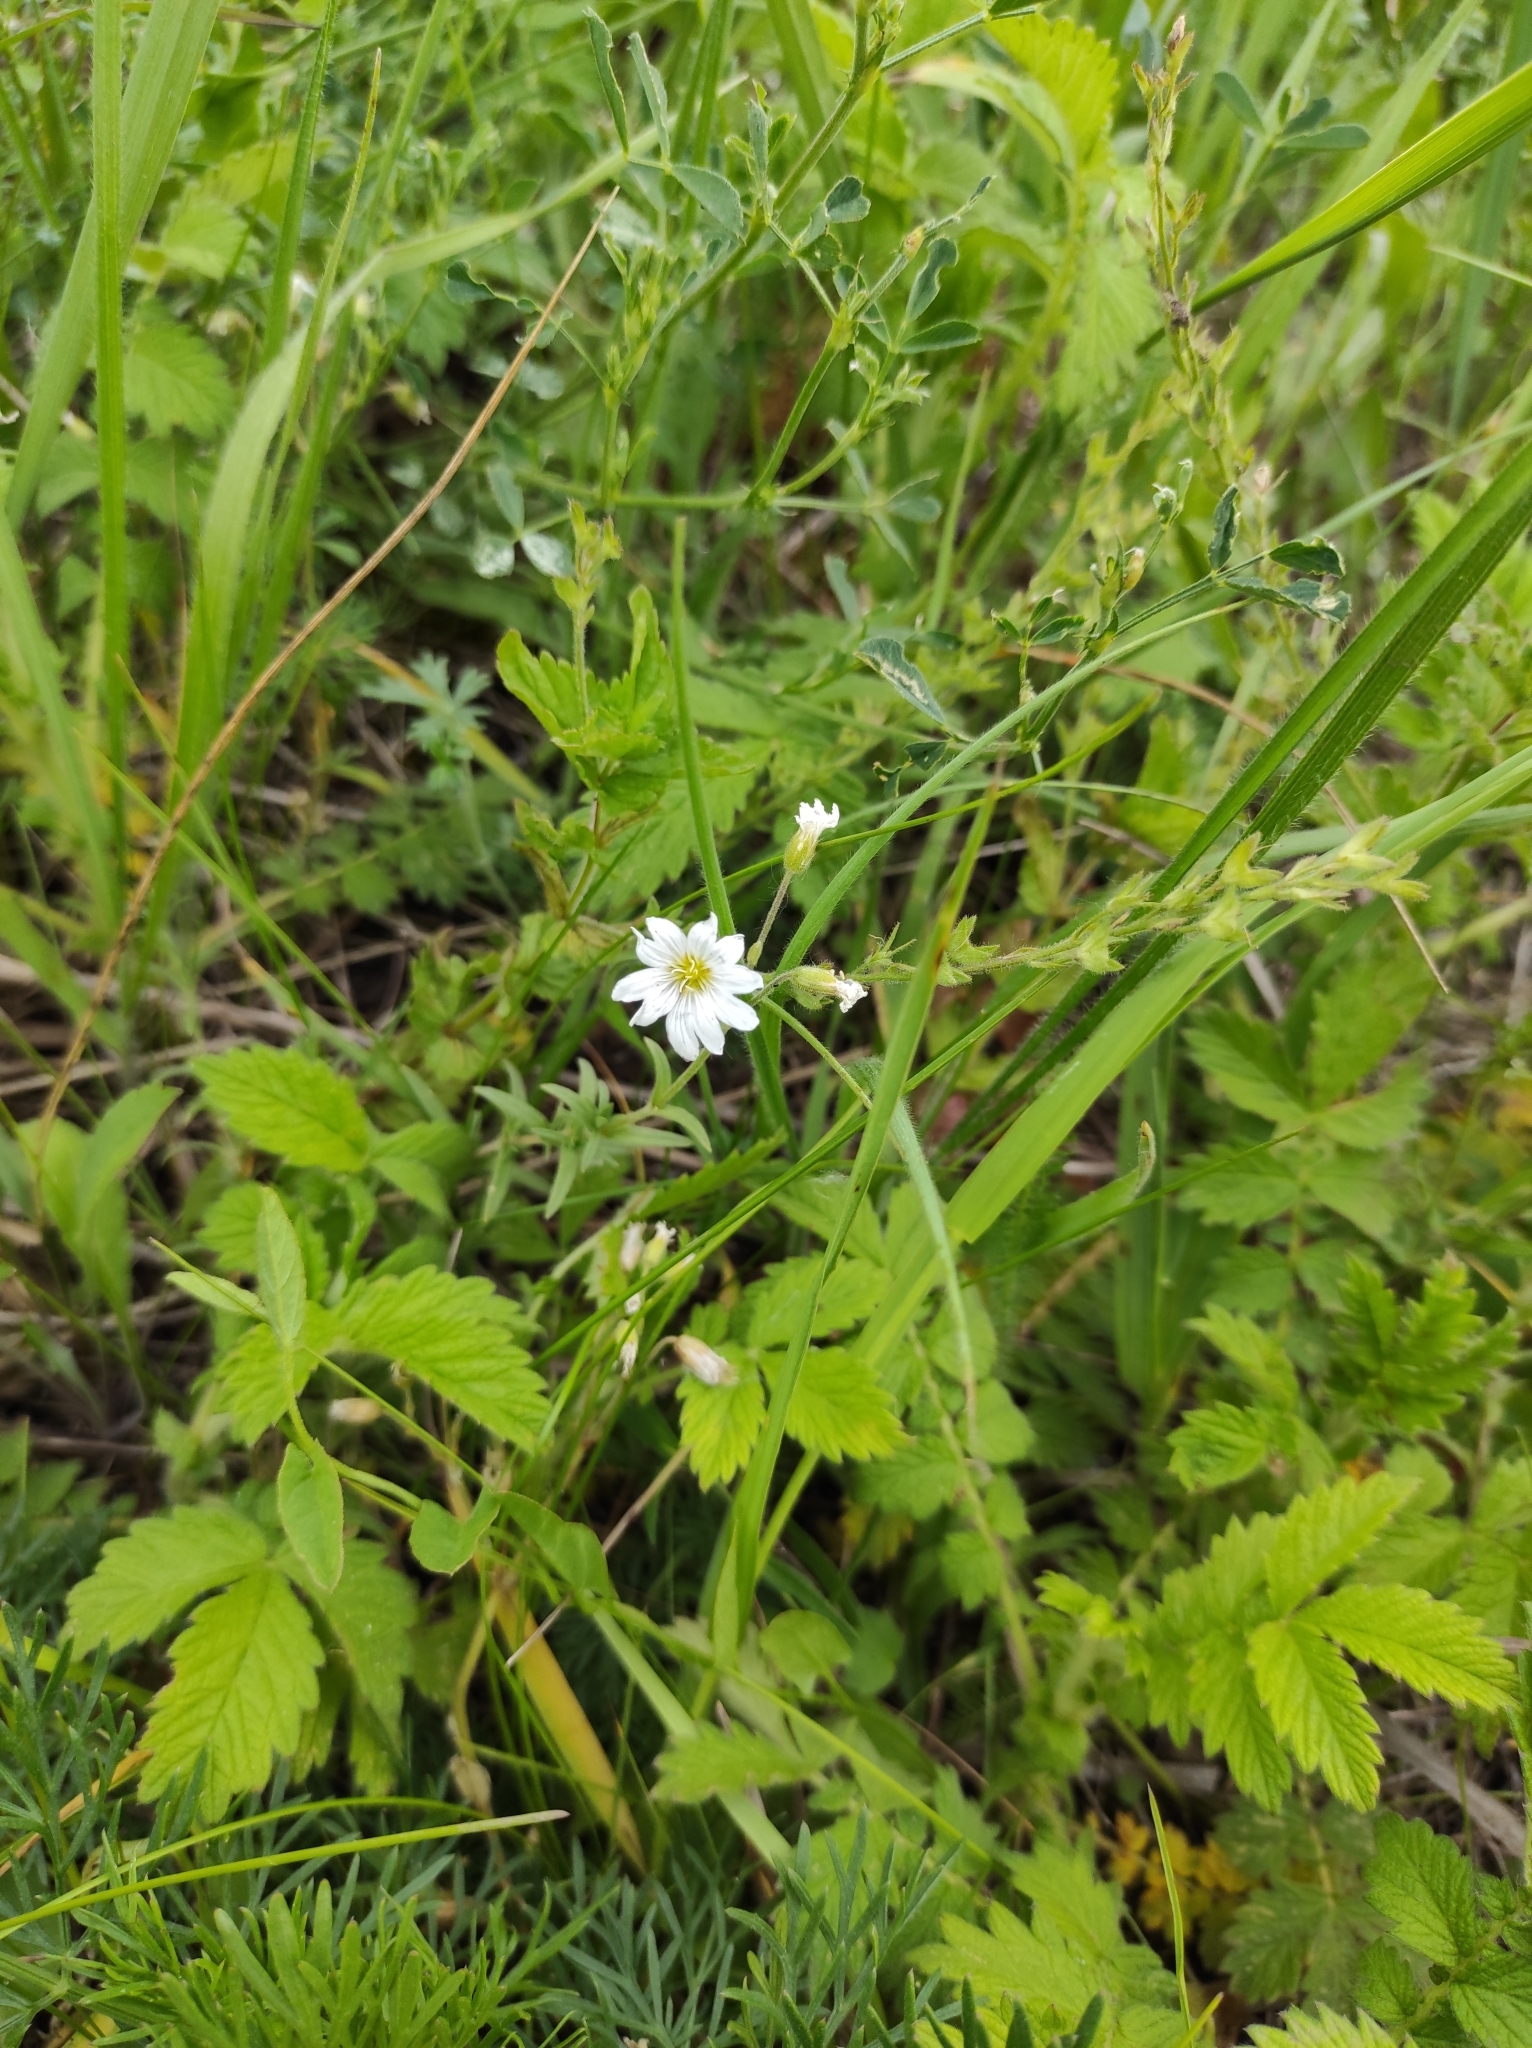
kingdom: Plantae
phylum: Tracheophyta
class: Magnoliopsida
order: Caryophyllales
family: Caryophyllaceae
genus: Cerastium
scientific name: Cerastium arvense
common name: Field mouse-ear
